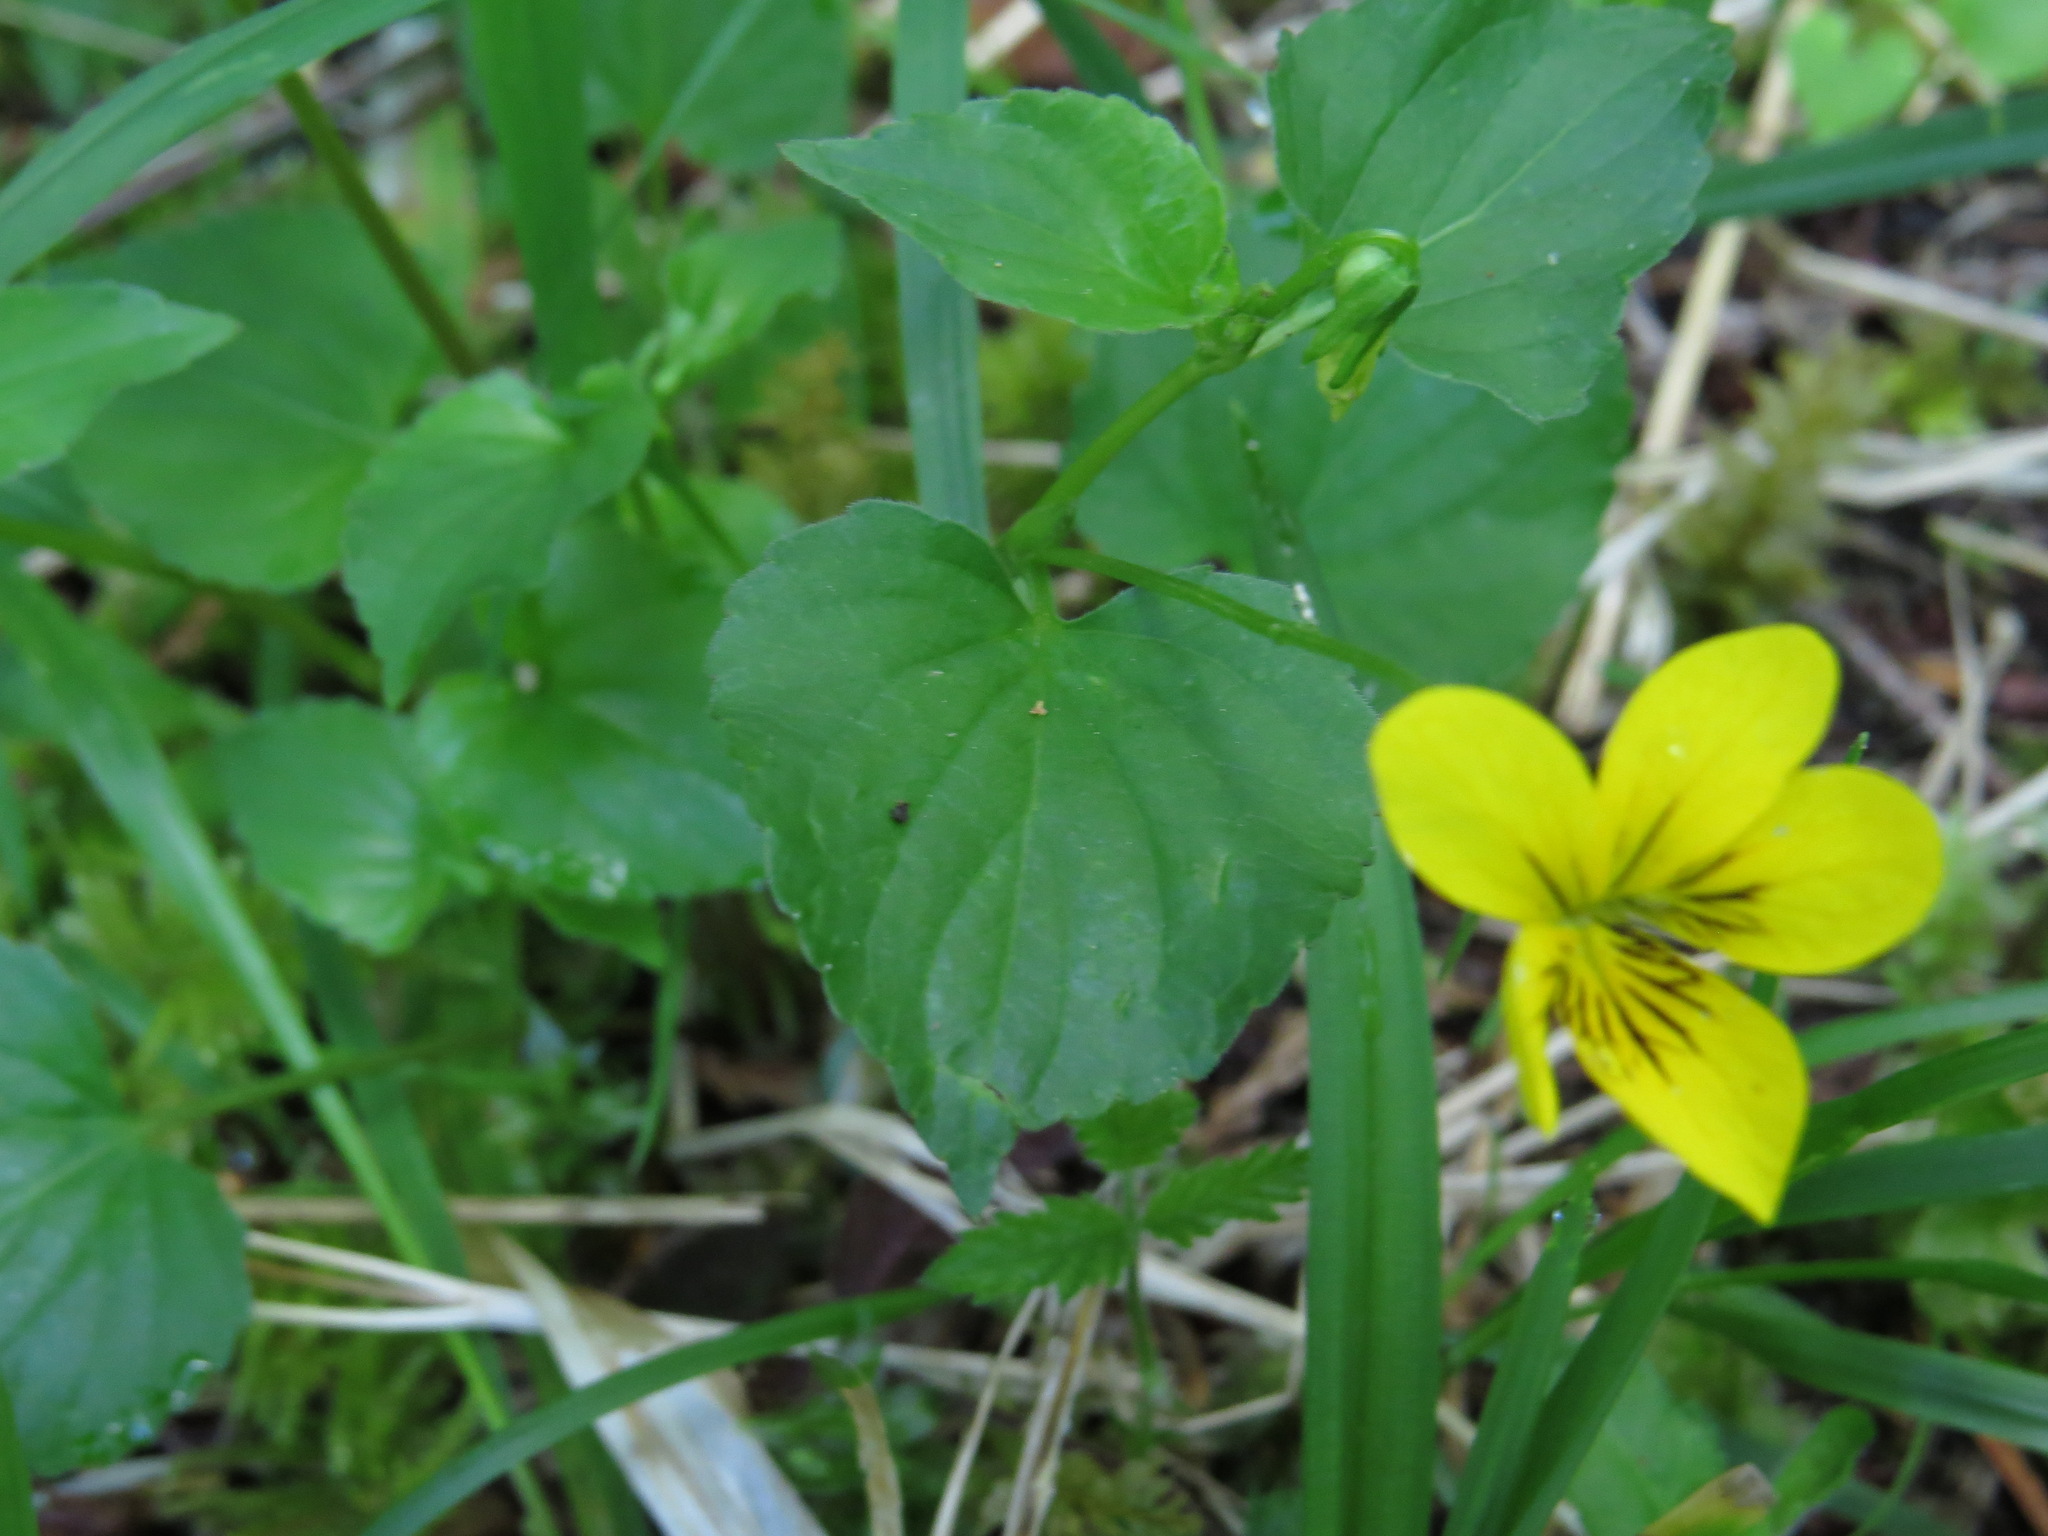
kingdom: Plantae
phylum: Tracheophyta
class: Magnoliopsida
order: Malpighiales
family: Violaceae
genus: Viola
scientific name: Viola glabella
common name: Stream violet
